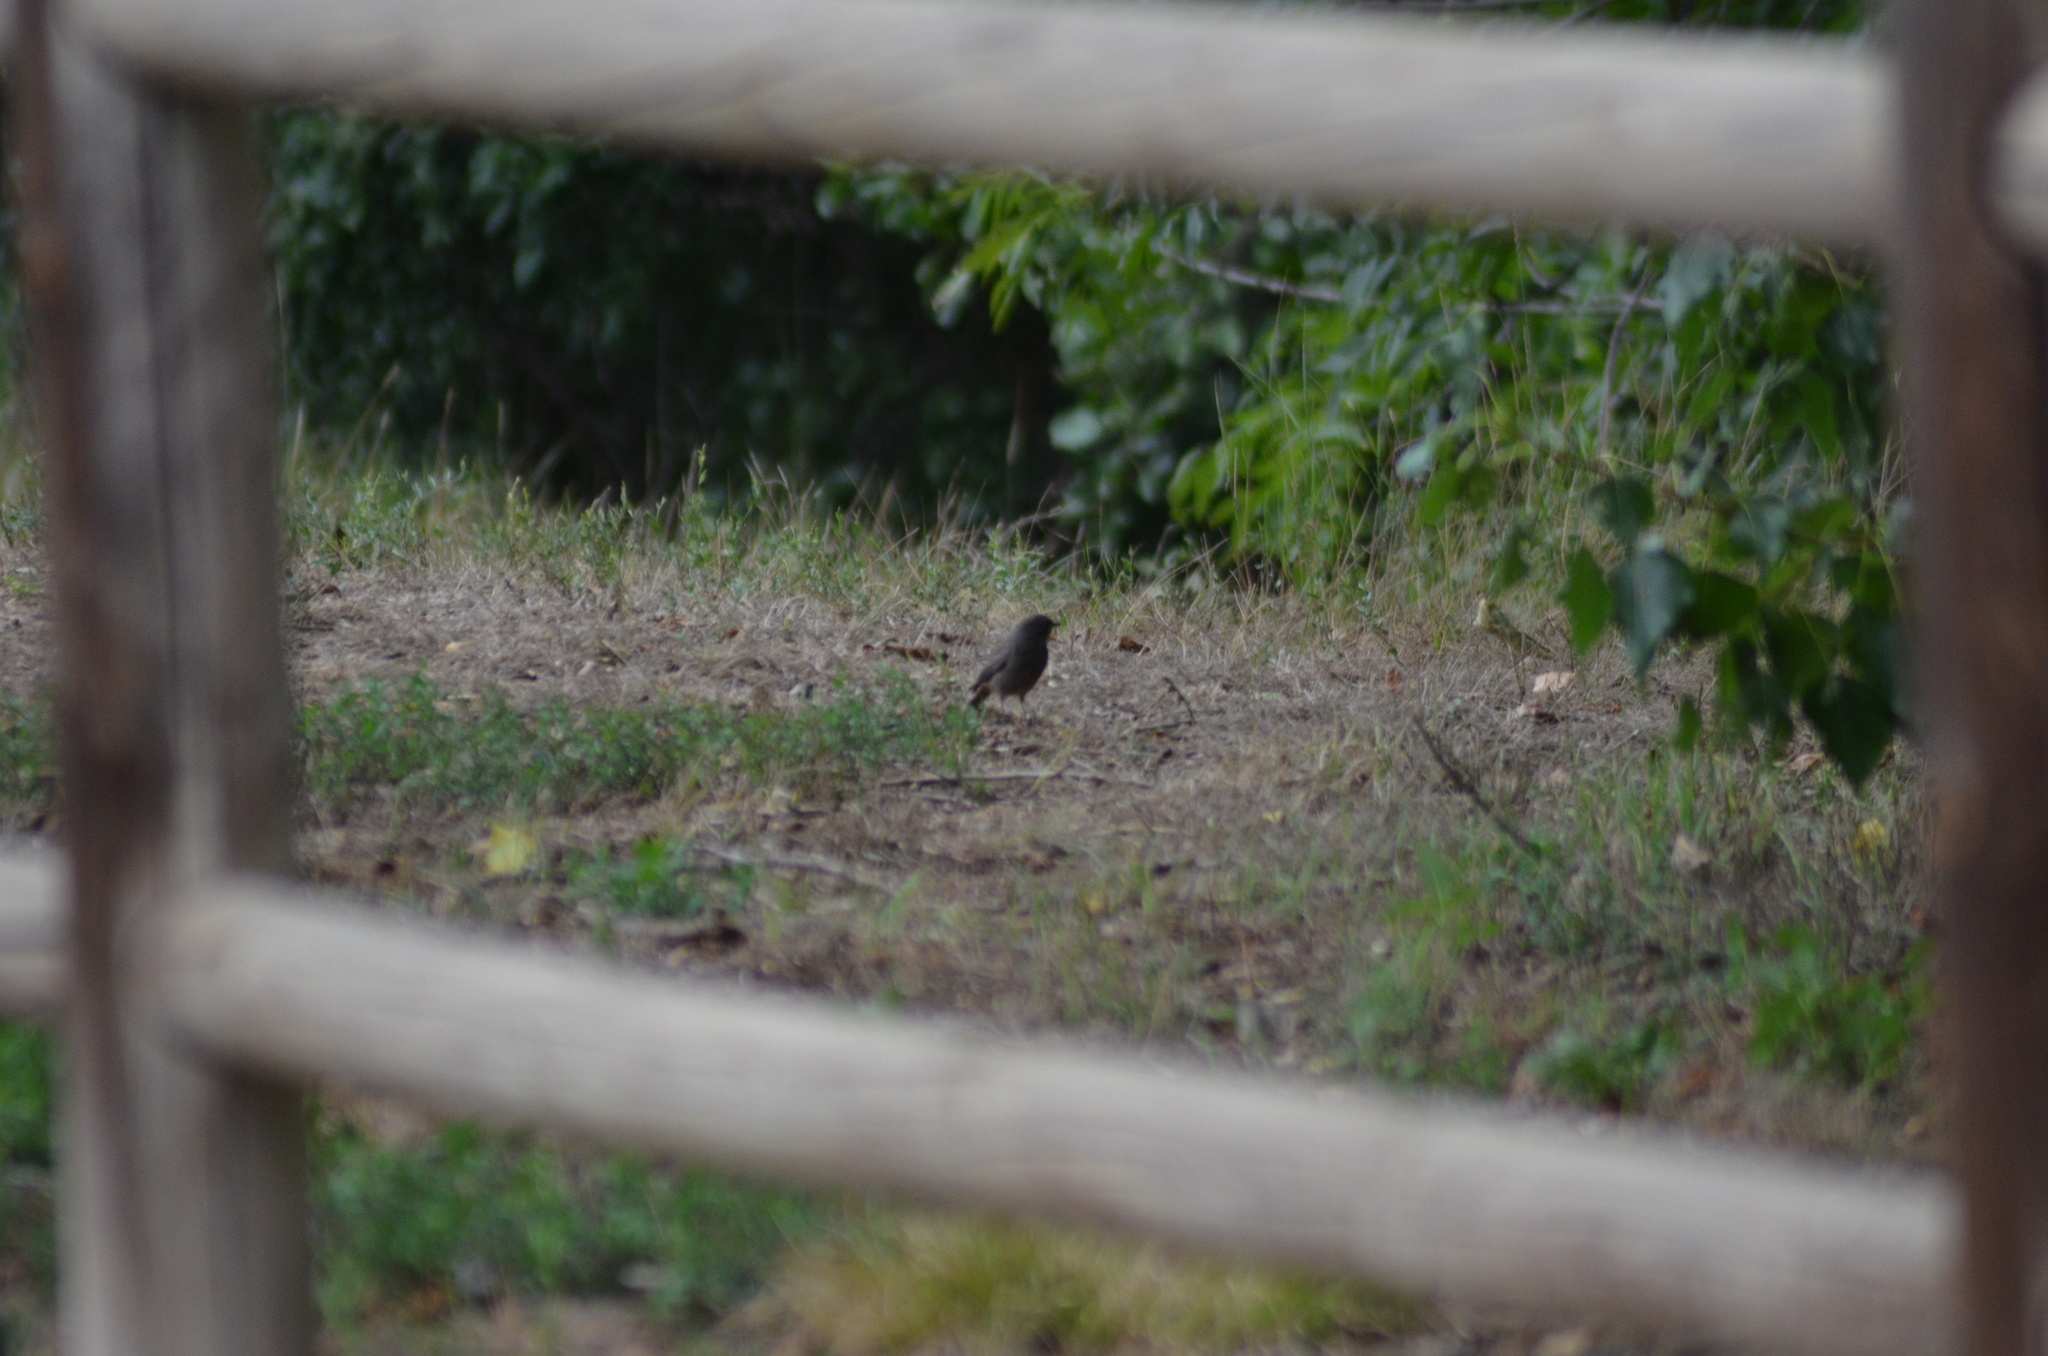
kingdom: Animalia
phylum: Chordata
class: Aves
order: Passeriformes
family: Muscicapidae
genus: Phoenicurus
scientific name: Phoenicurus ochruros
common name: Black redstart
